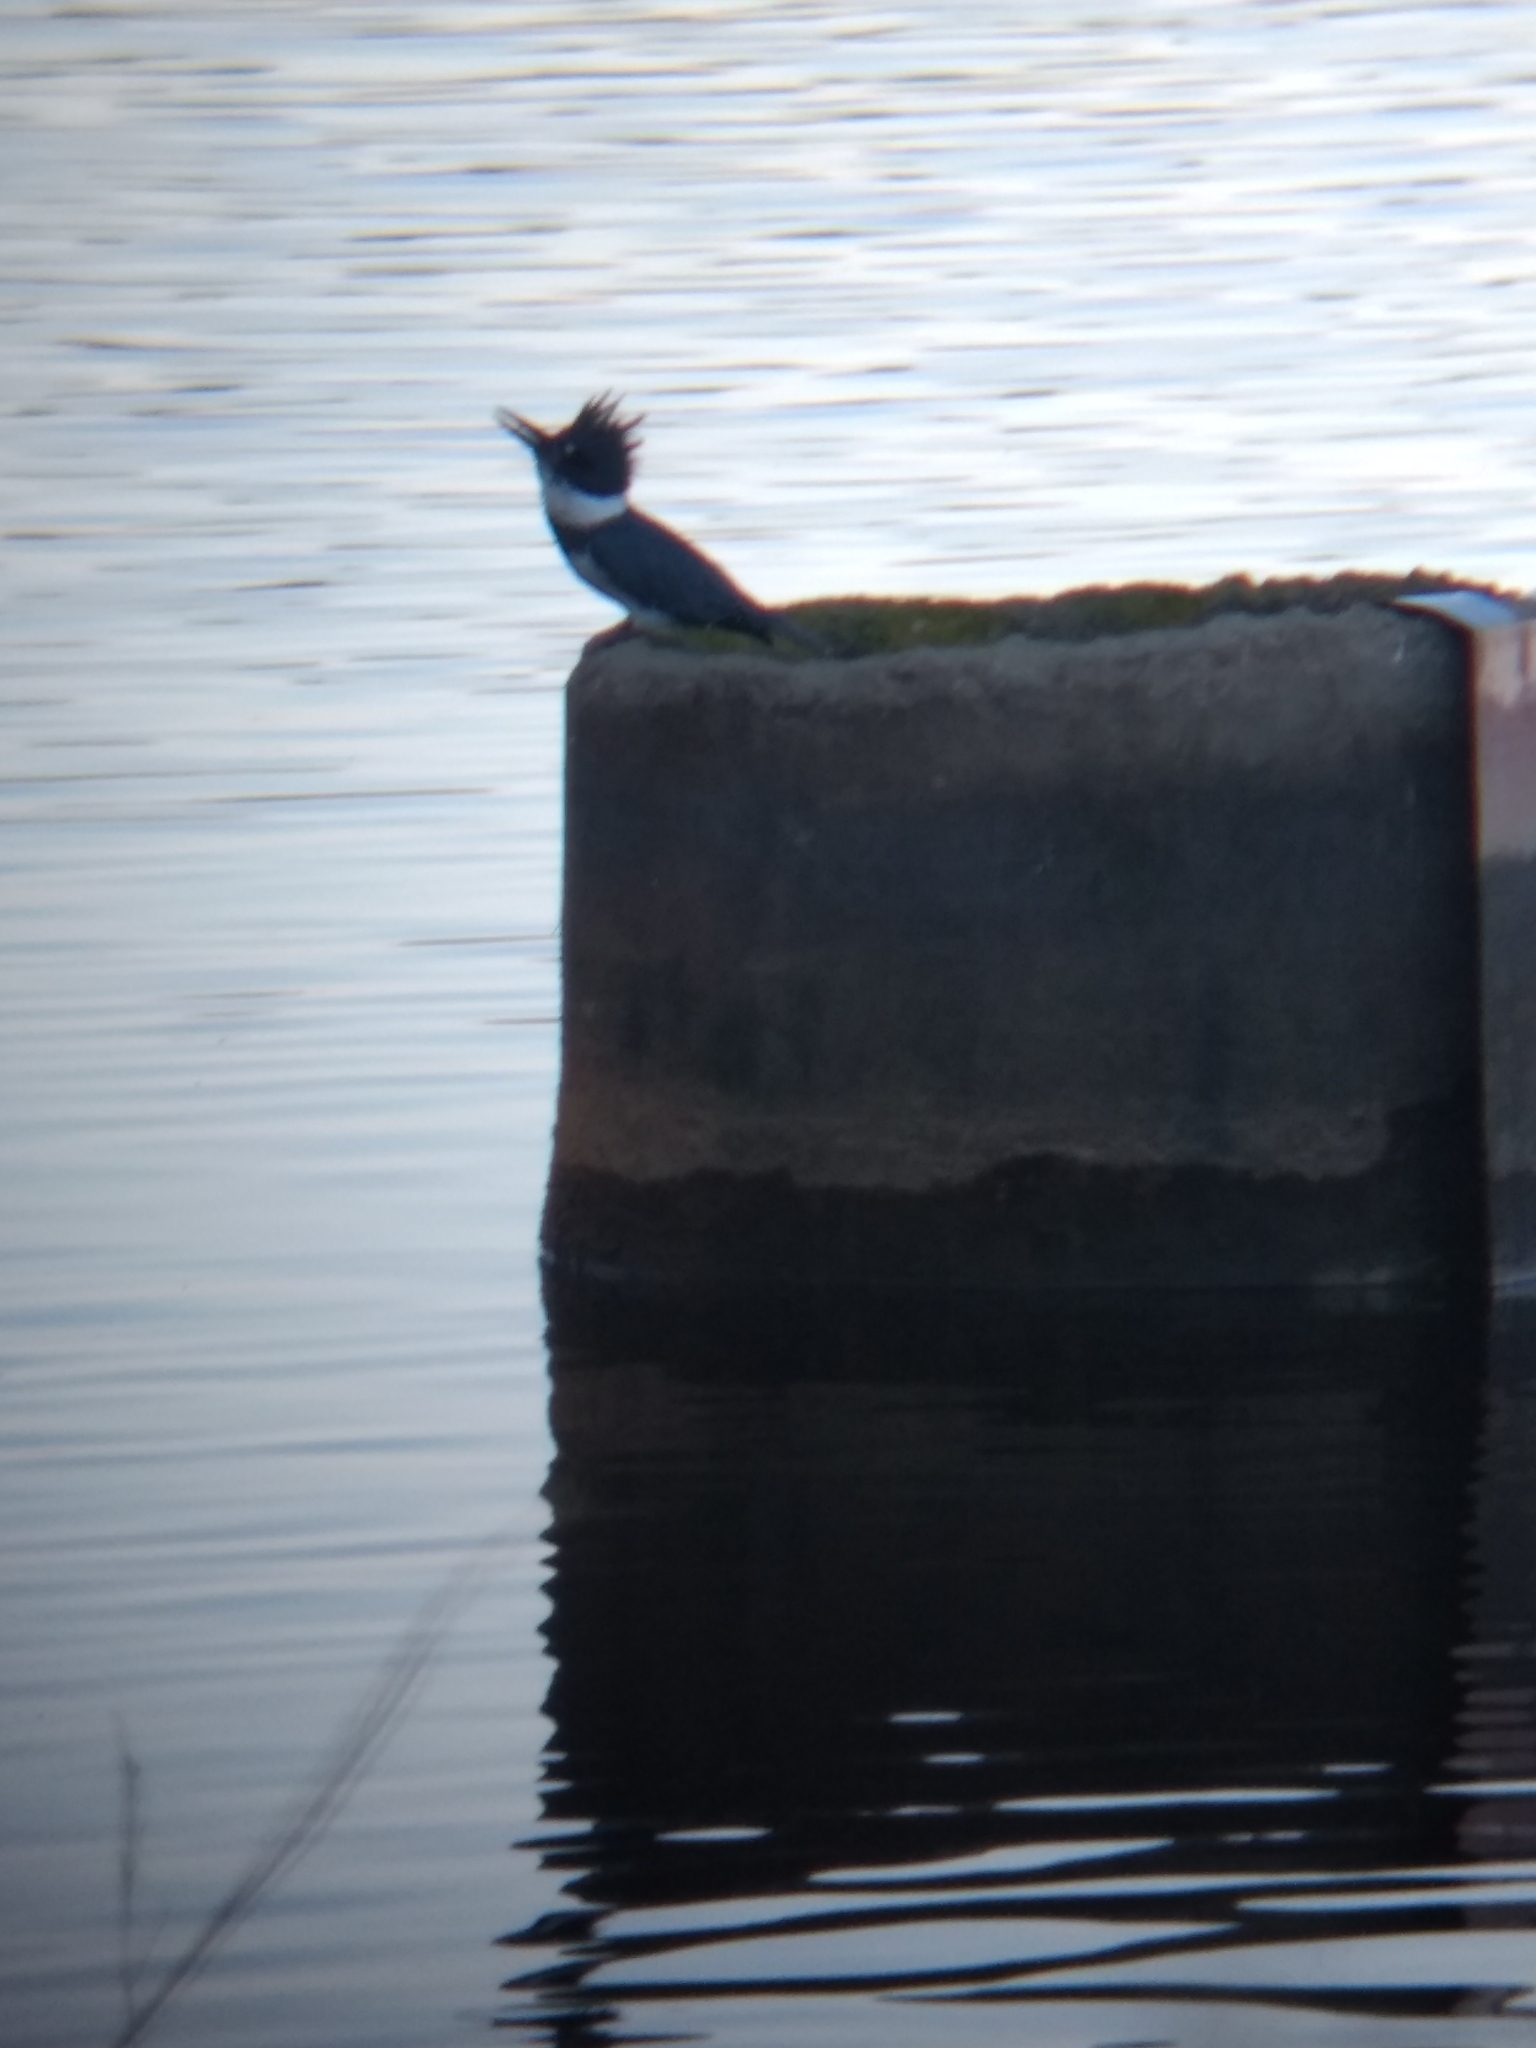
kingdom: Animalia
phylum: Chordata
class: Aves
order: Coraciiformes
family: Alcedinidae
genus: Megaceryle
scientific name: Megaceryle alcyon
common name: Belted kingfisher
